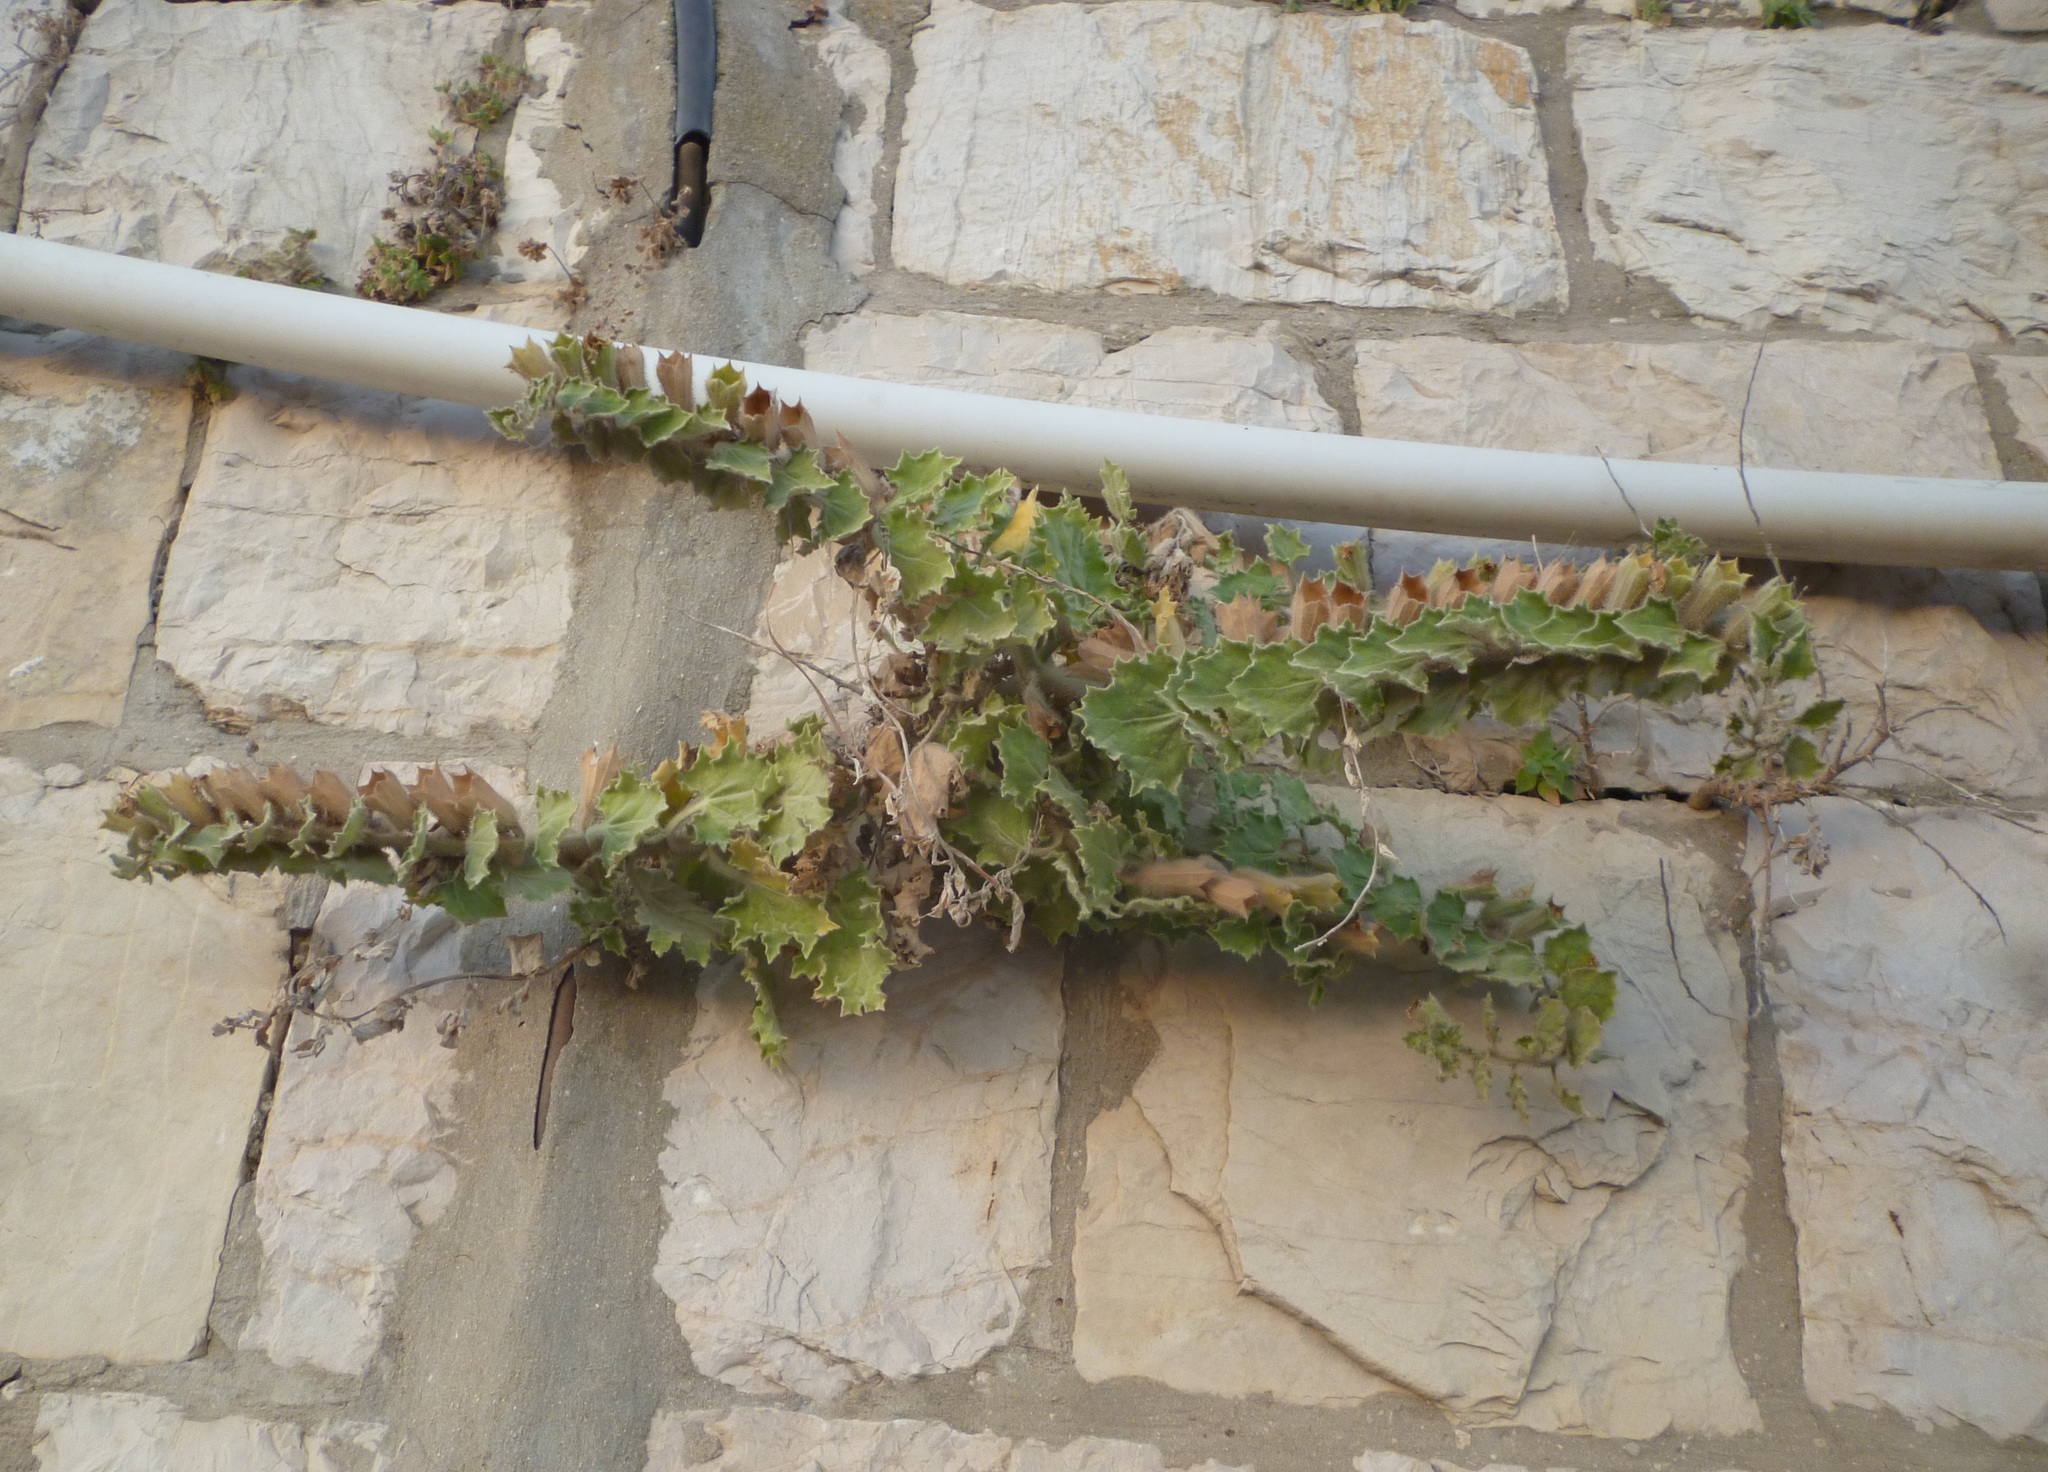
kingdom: Plantae
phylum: Tracheophyta
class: Magnoliopsida
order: Solanales
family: Solanaceae
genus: Hyoscyamus
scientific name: Hyoscyamus aureus
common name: Golden henbane
